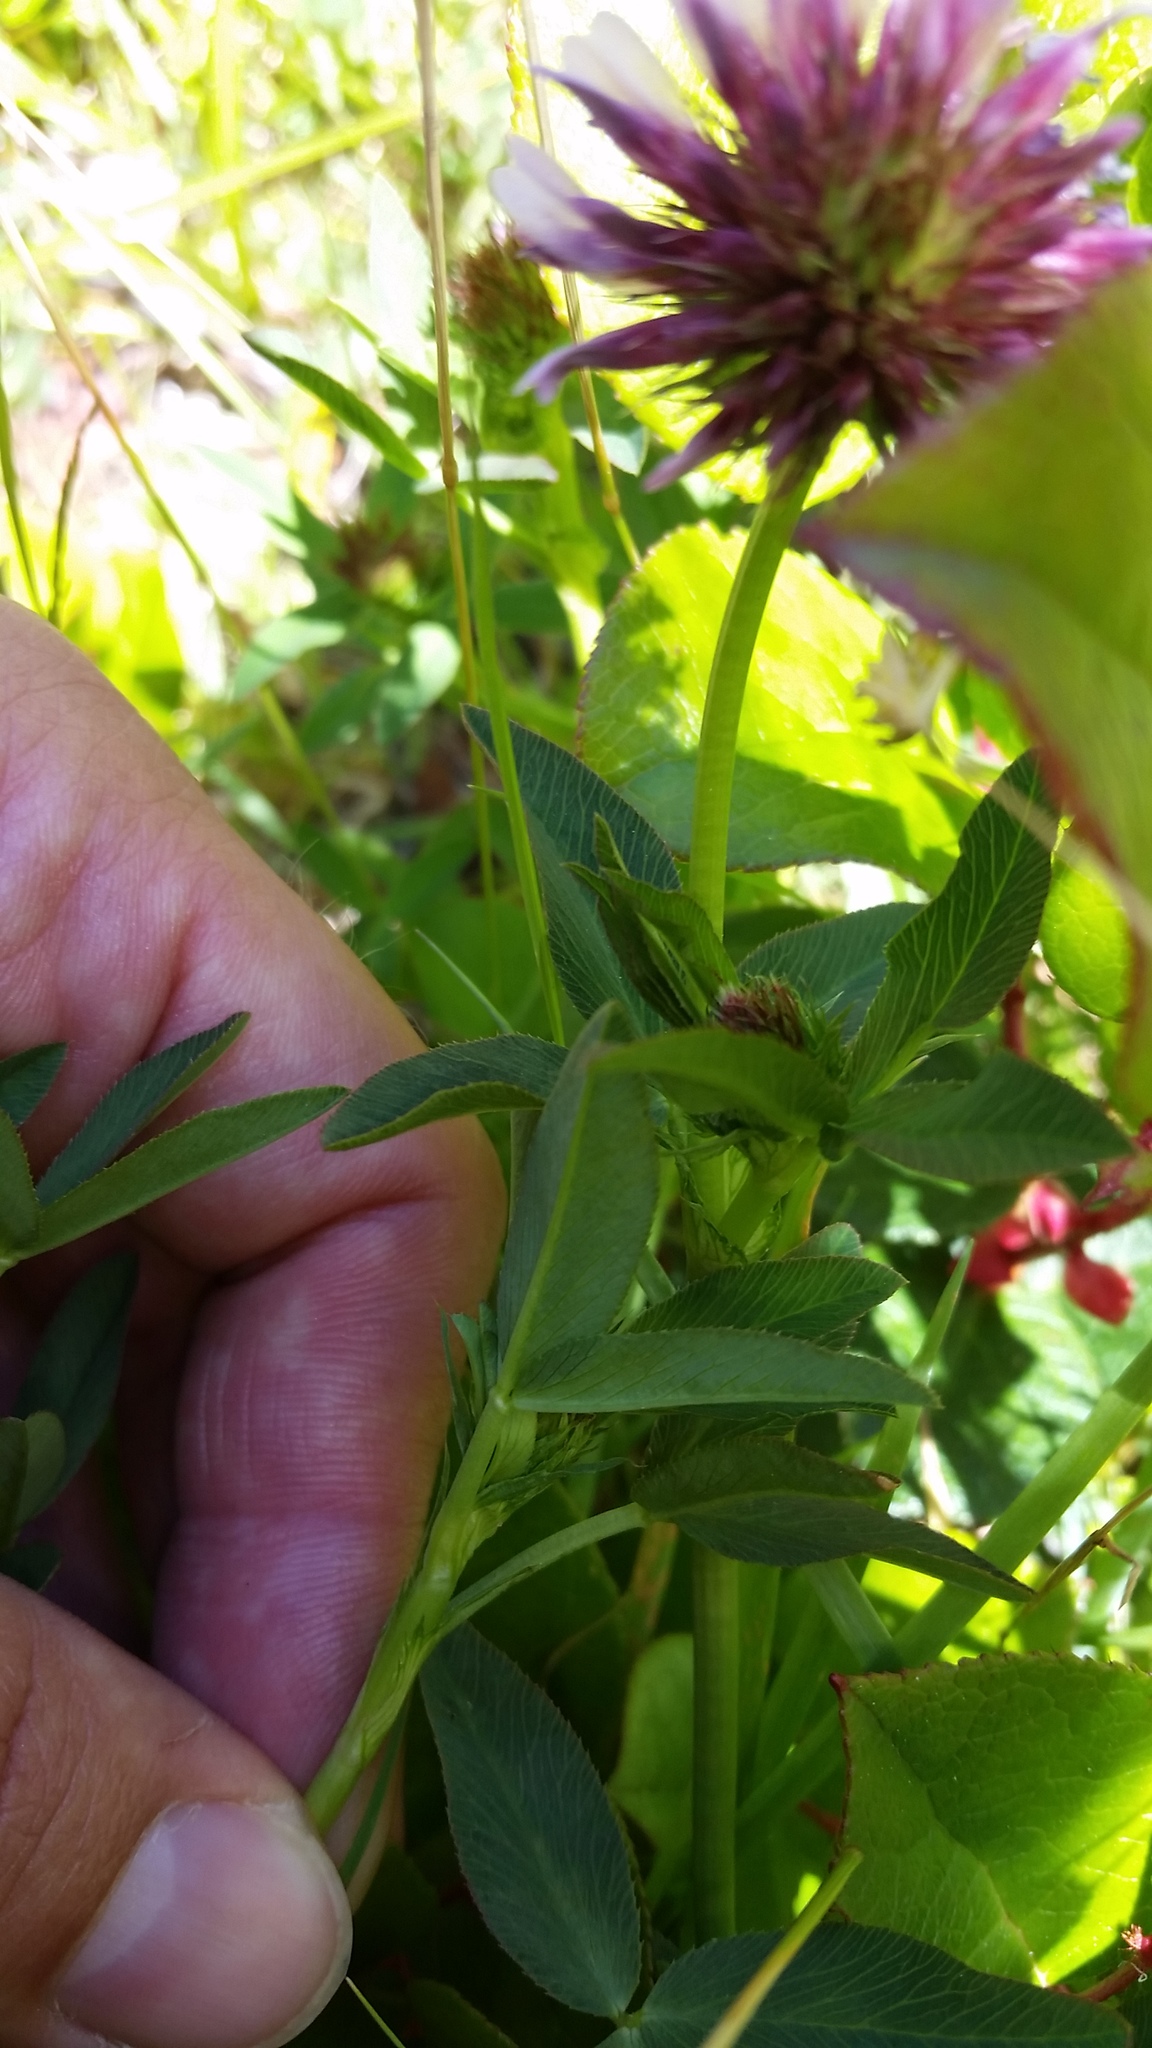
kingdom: Plantae
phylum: Tracheophyta
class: Magnoliopsida
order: Fabales
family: Fabaceae
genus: Trifolium
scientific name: Trifolium wormskioldii
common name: Springbank clover
